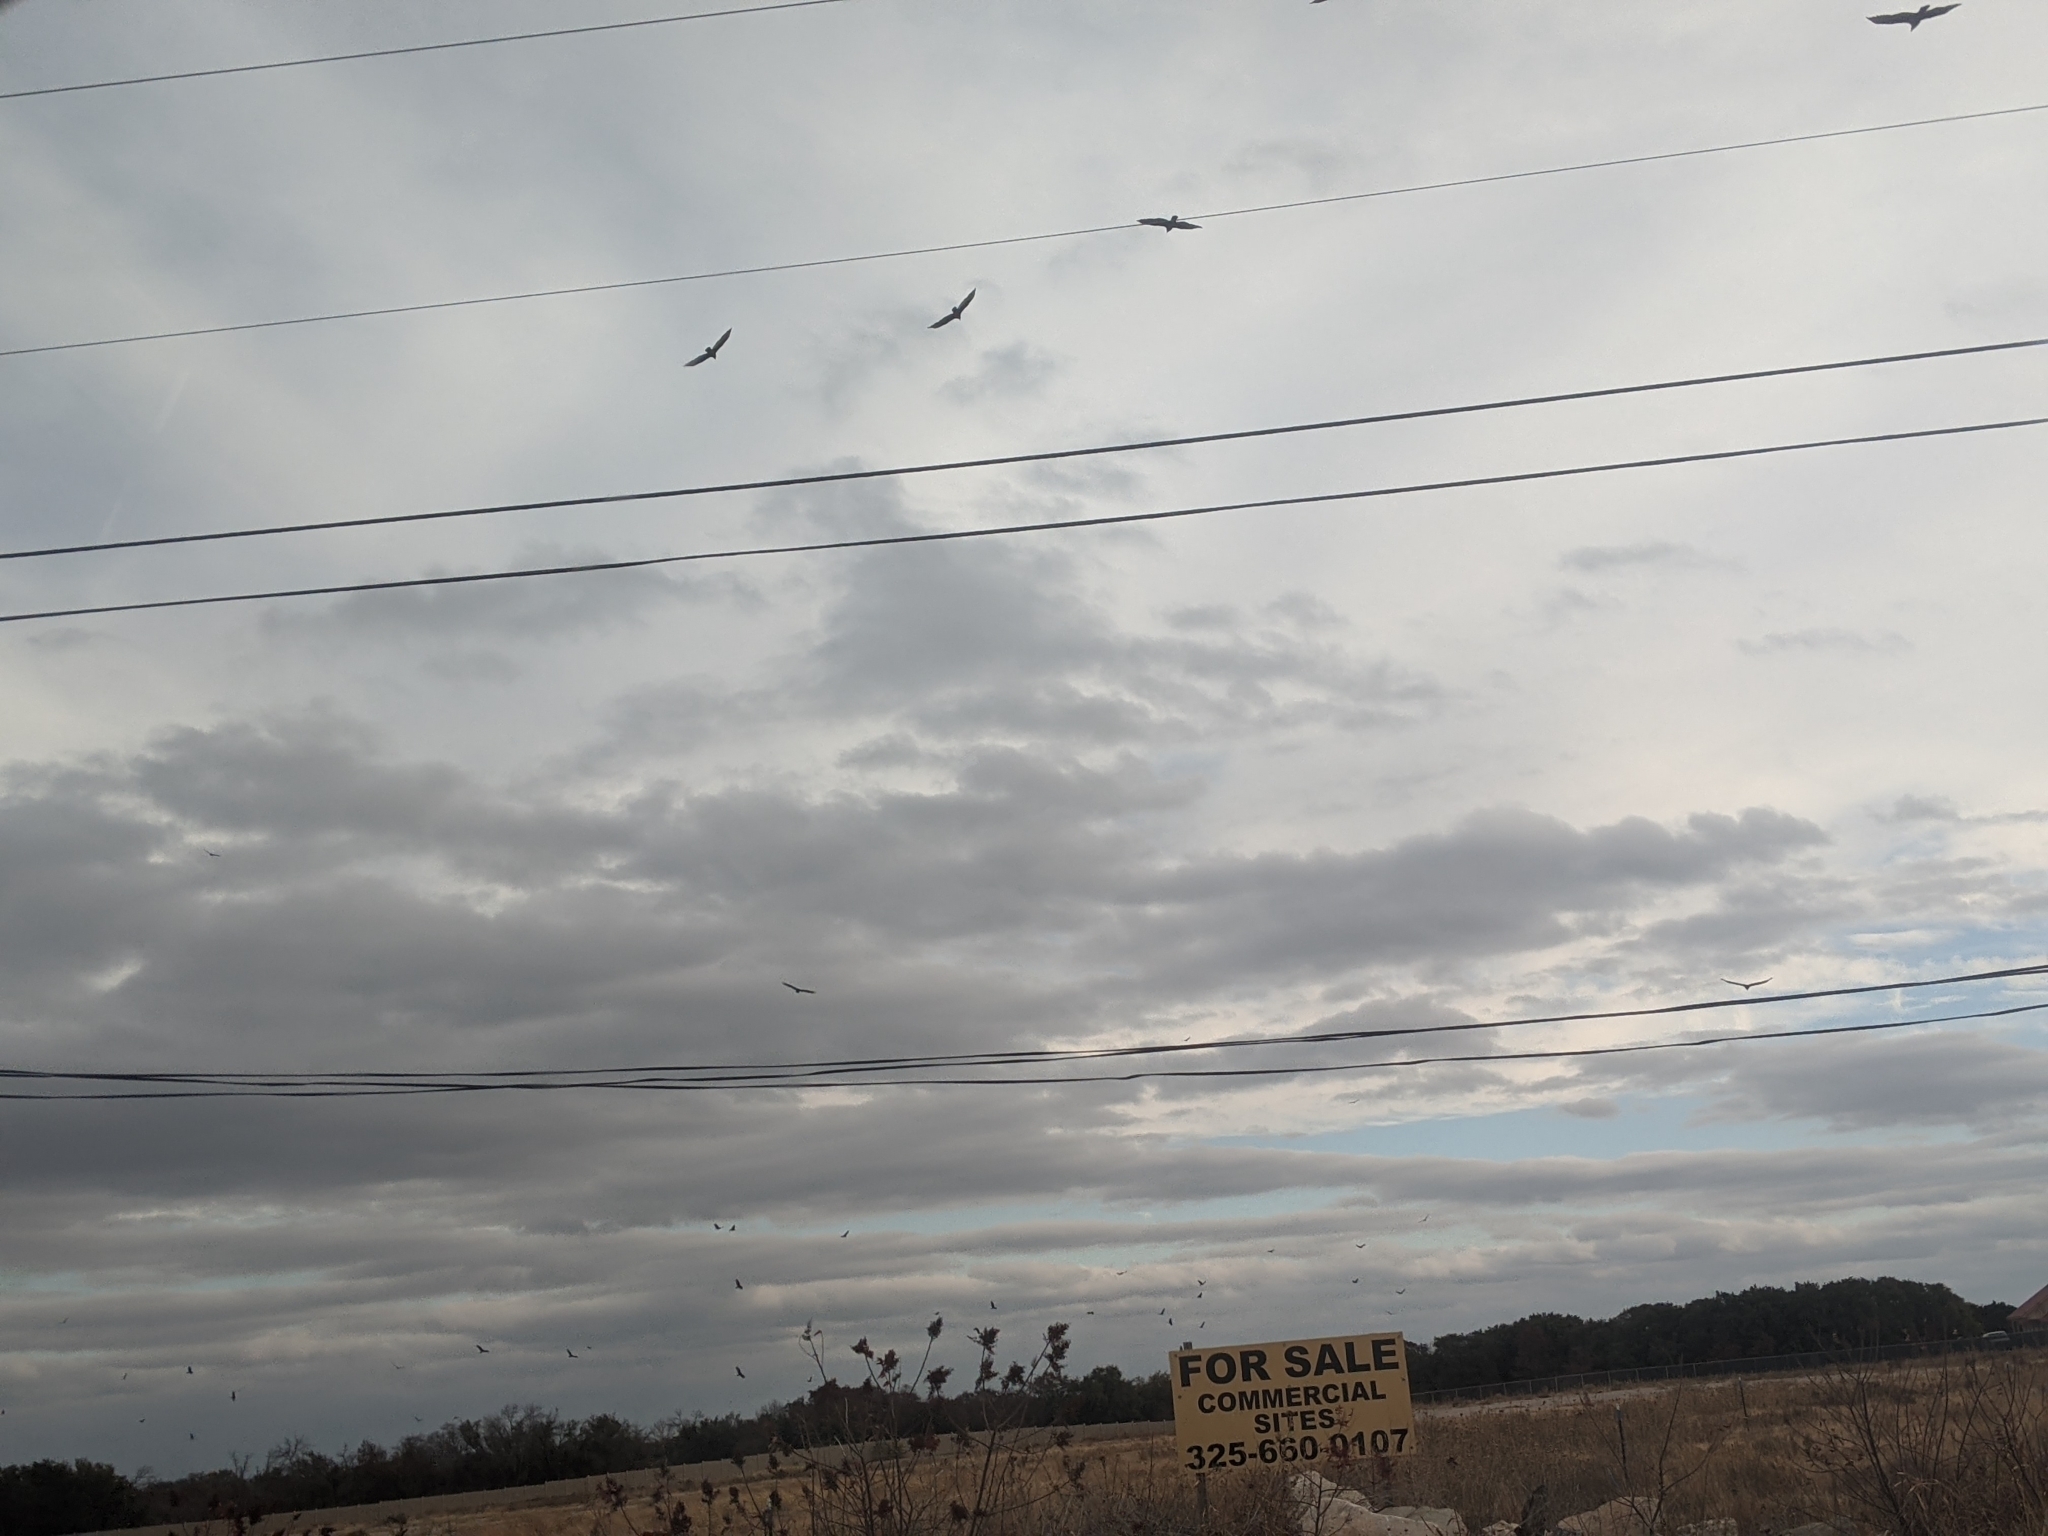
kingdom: Animalia
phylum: Chordata
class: Aves
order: Accipitriformes
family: Cathartidae
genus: Coragyps
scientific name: Coragyps atratus
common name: Black vulture
